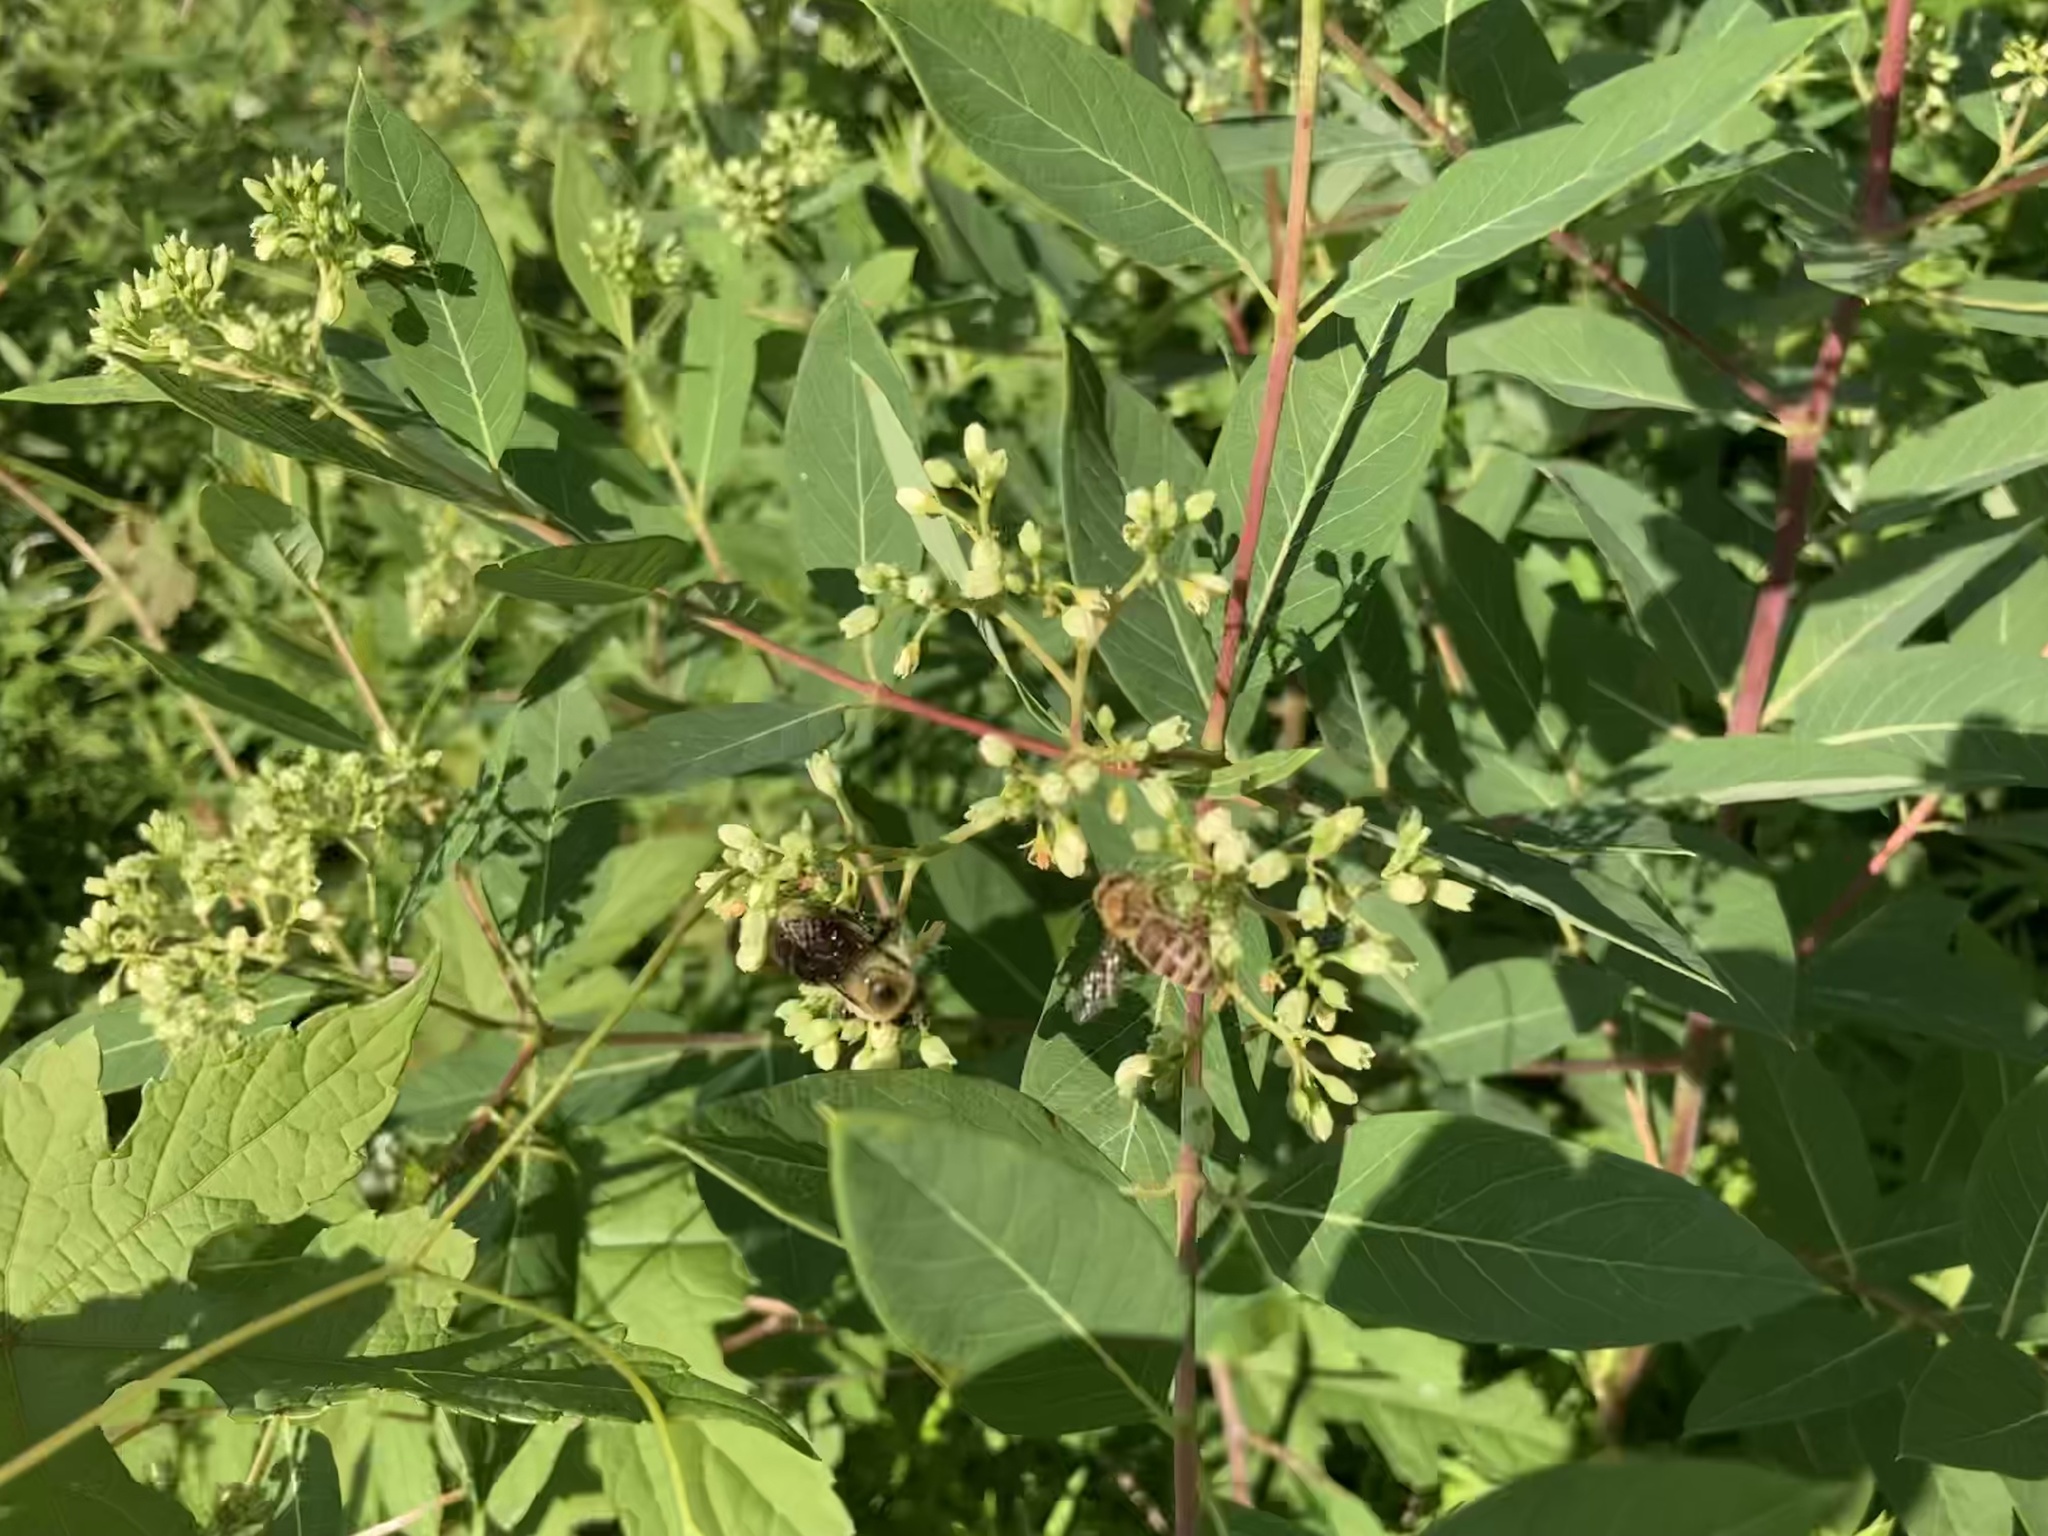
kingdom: Plantae
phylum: Tracheophyta
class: Magnoliopsida
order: Gentianales
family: Apocynaceae
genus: Apocynum
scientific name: Apocynum cannabinum
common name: Hemp dogbane
